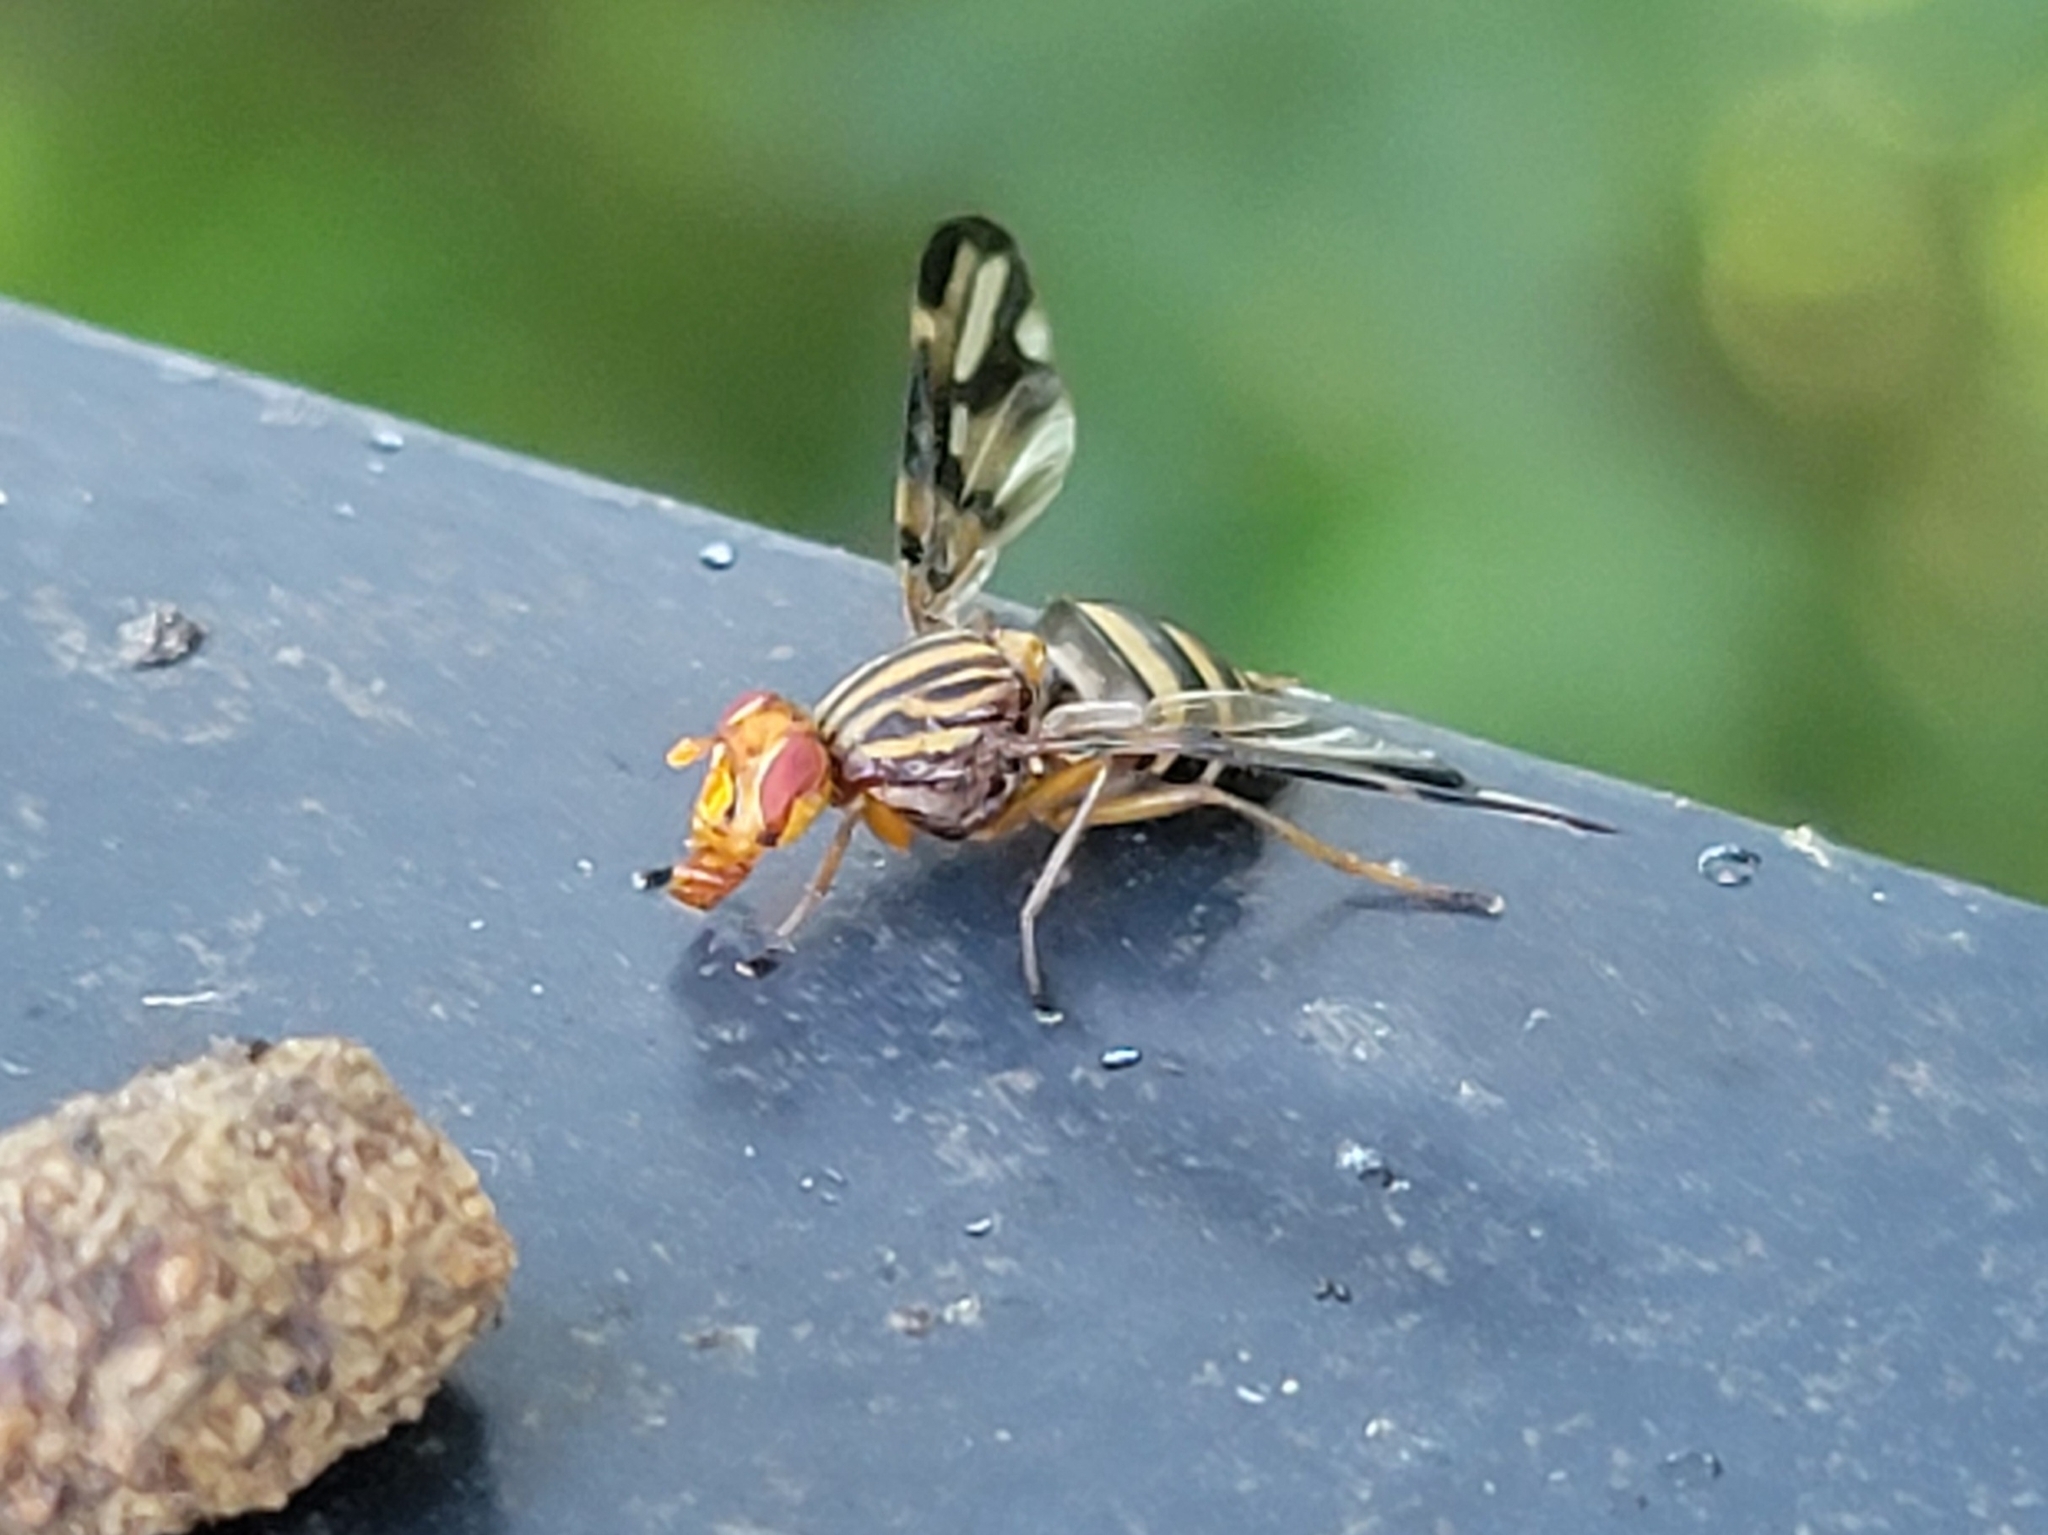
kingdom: Animalia
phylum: Arthropoda
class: Insecta
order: Diptera
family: Ulidiidae
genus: Idana
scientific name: Idana marginata
